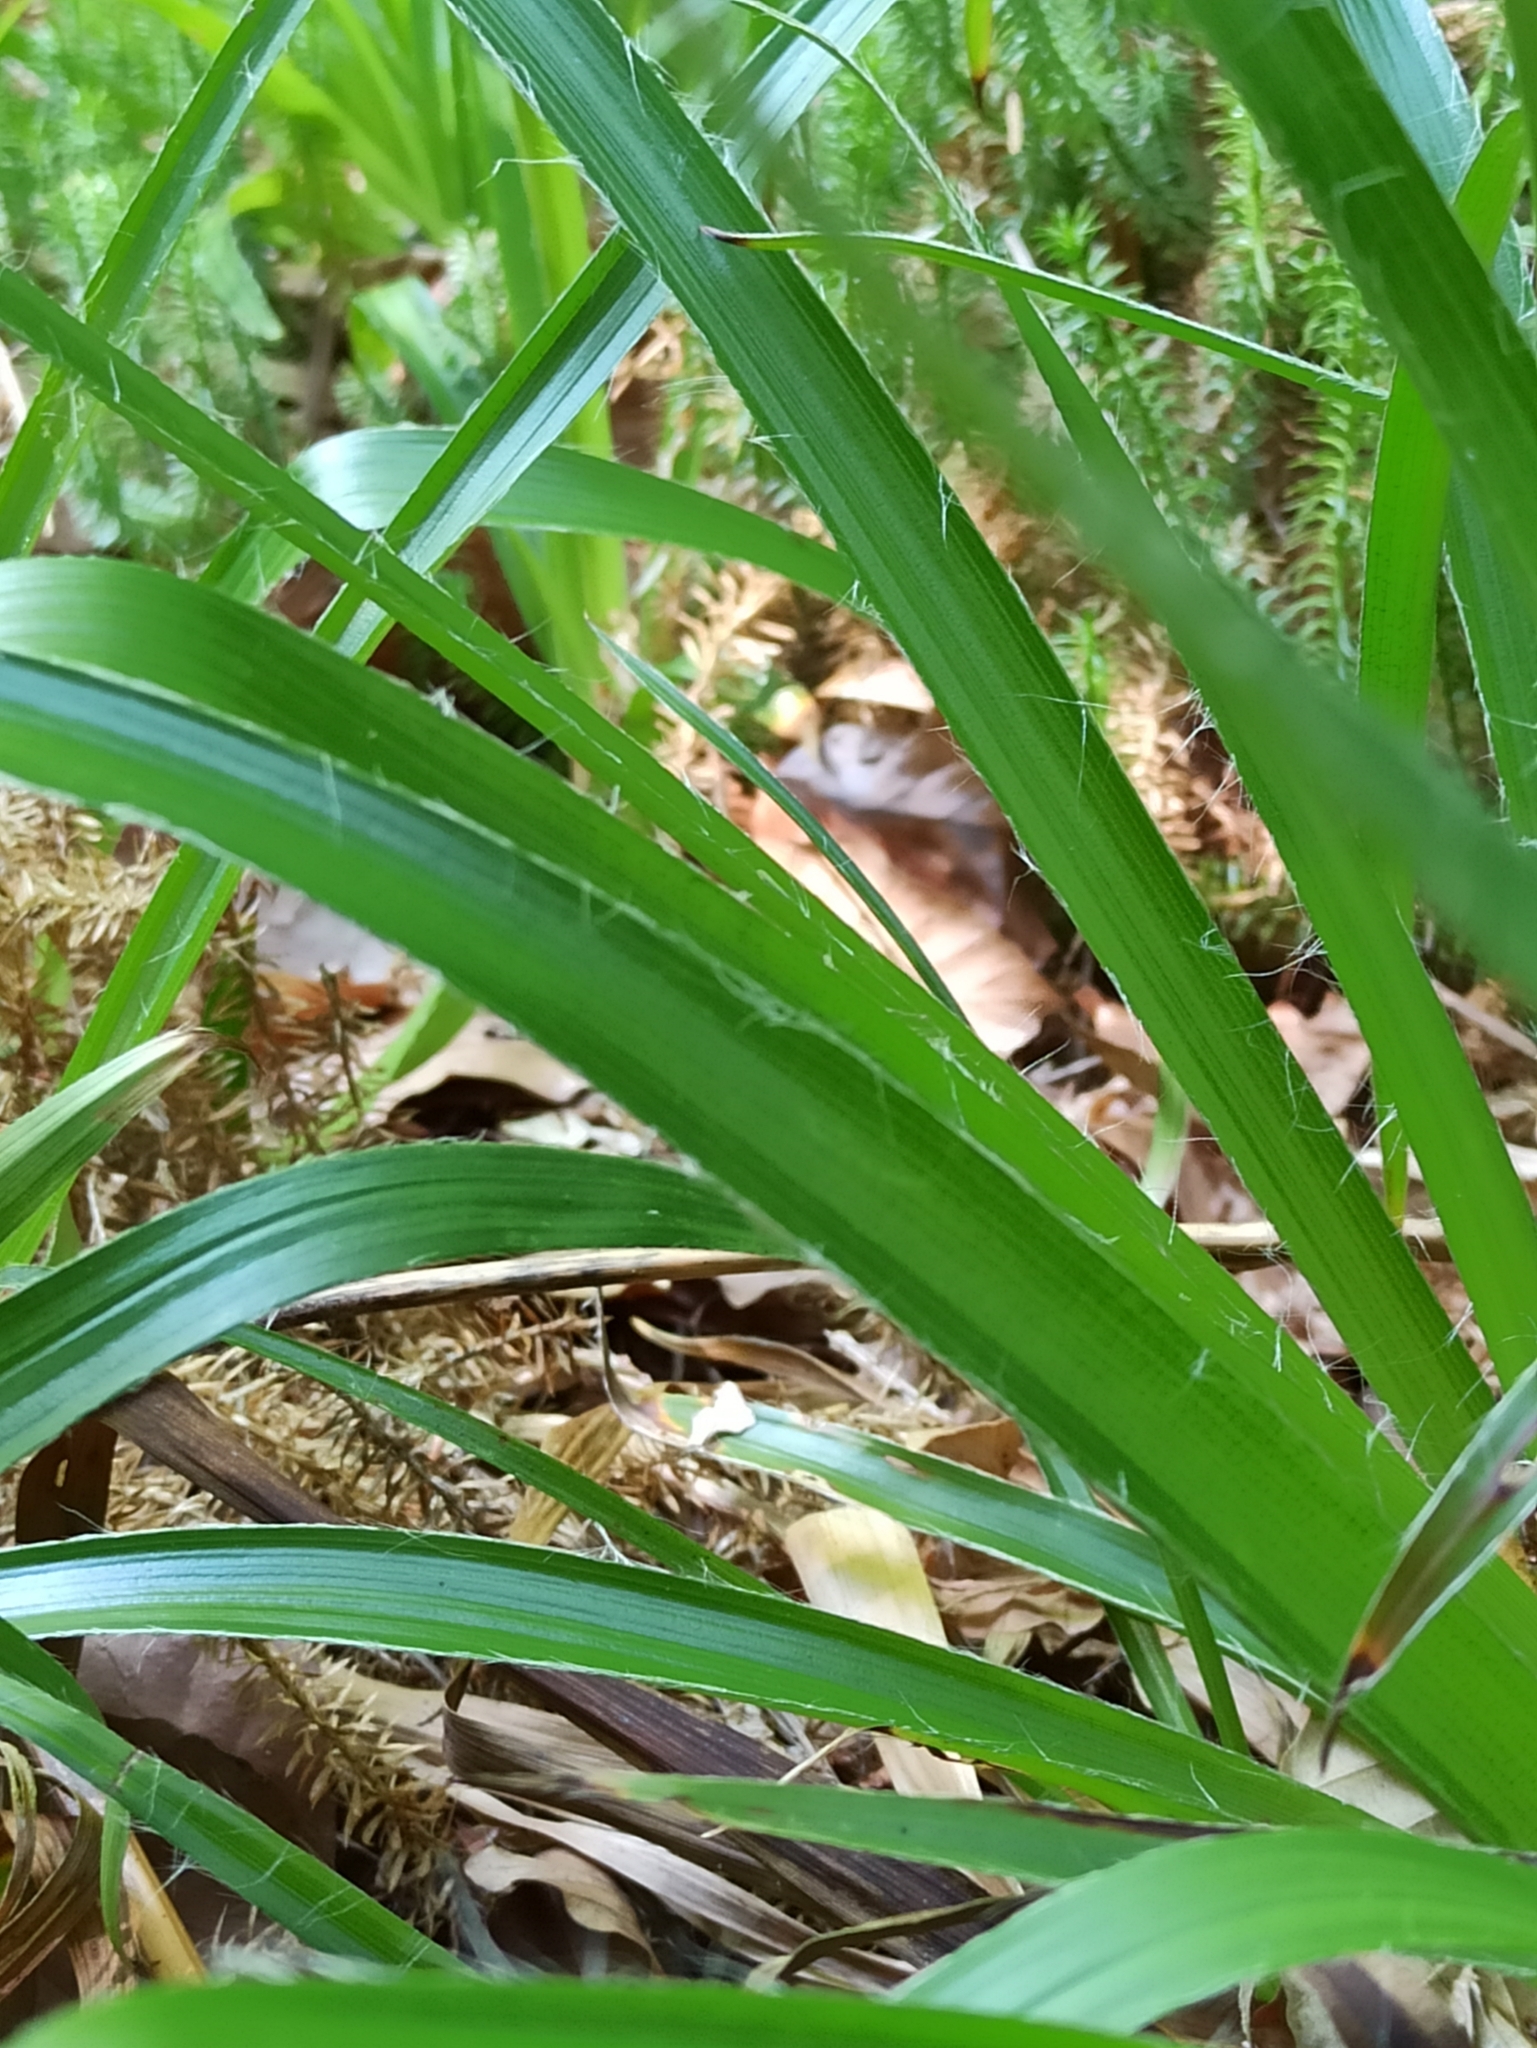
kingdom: Plantae
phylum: Tracheophyta
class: Liliopsida
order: Poales
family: Juncaceae
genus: Luzula
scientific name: Luzula sylvatica
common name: Great wood-rush
